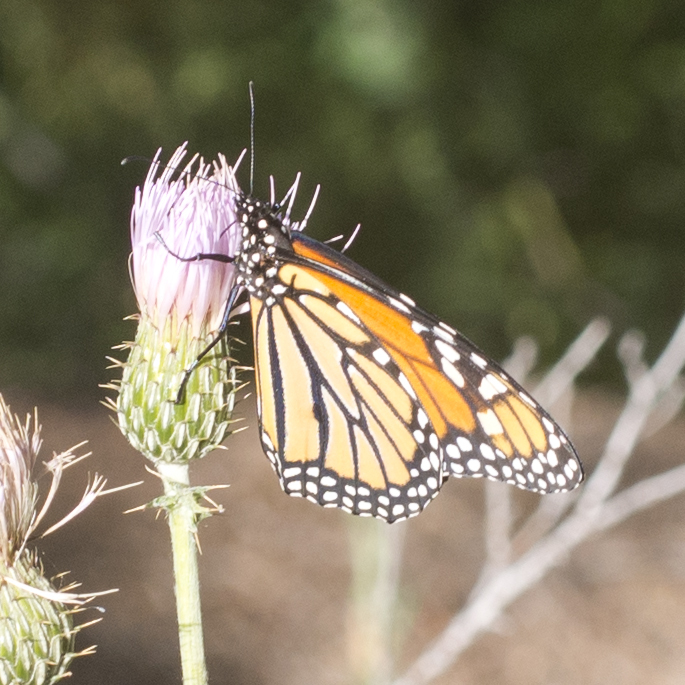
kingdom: Animalia
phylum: Arthropoda
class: Insecta
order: Lepidoptera
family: Nymphalidae
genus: Danaus
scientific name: Danaus plexippus
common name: Monarch
